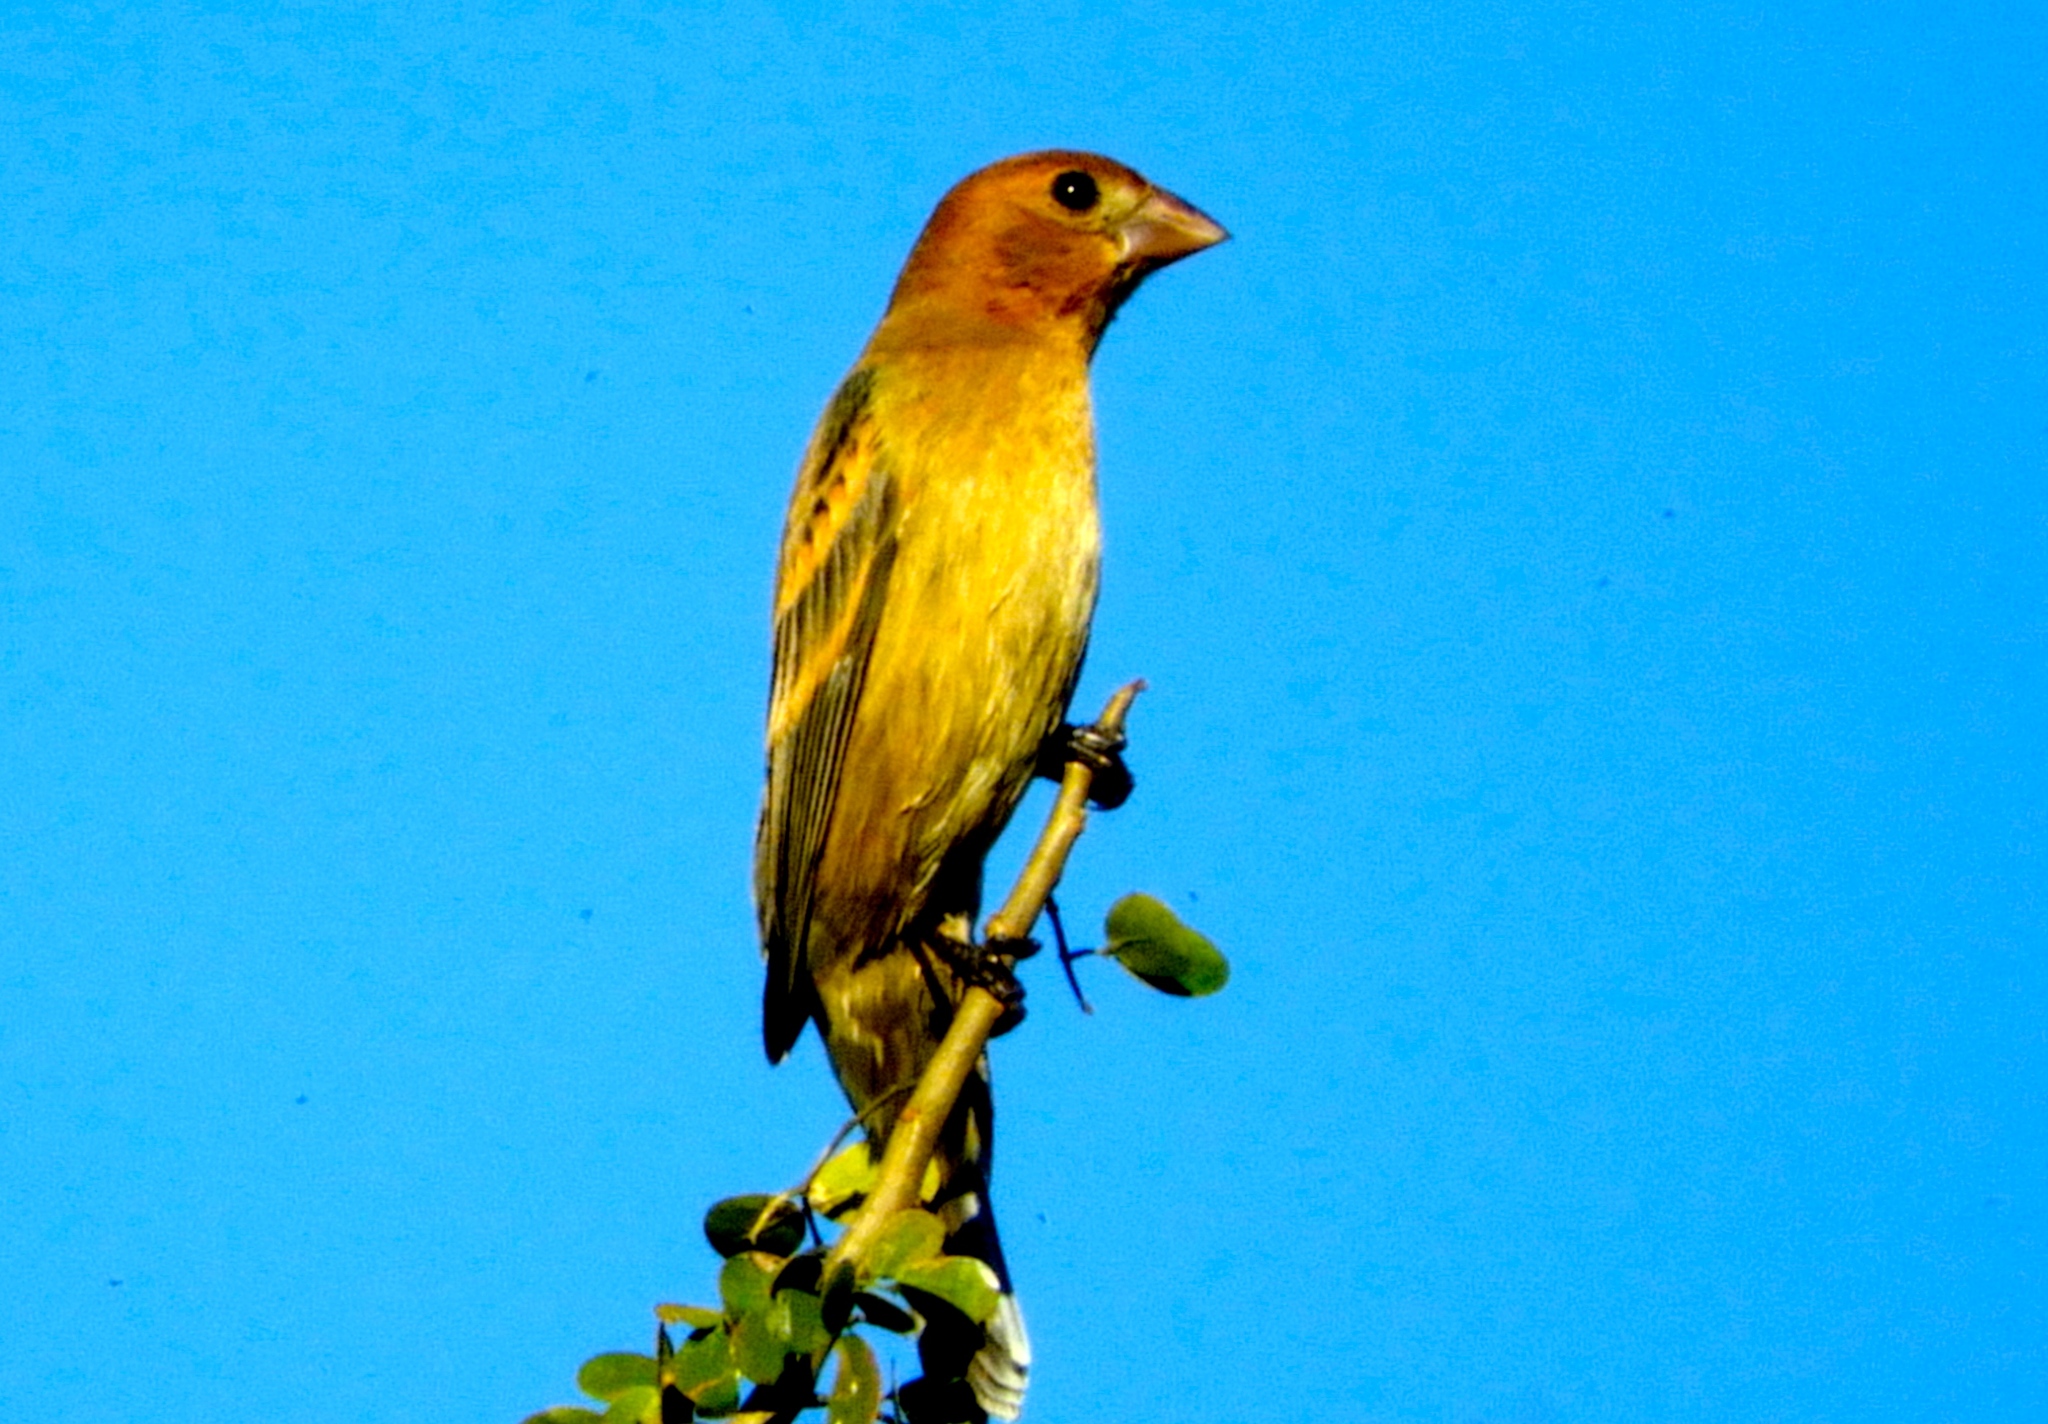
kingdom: Animalia
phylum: Chordata
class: Aves
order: Passeriformes
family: Cardinalidae
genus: Passerina
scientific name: Passerina caerulea
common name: Blue grosbeak
